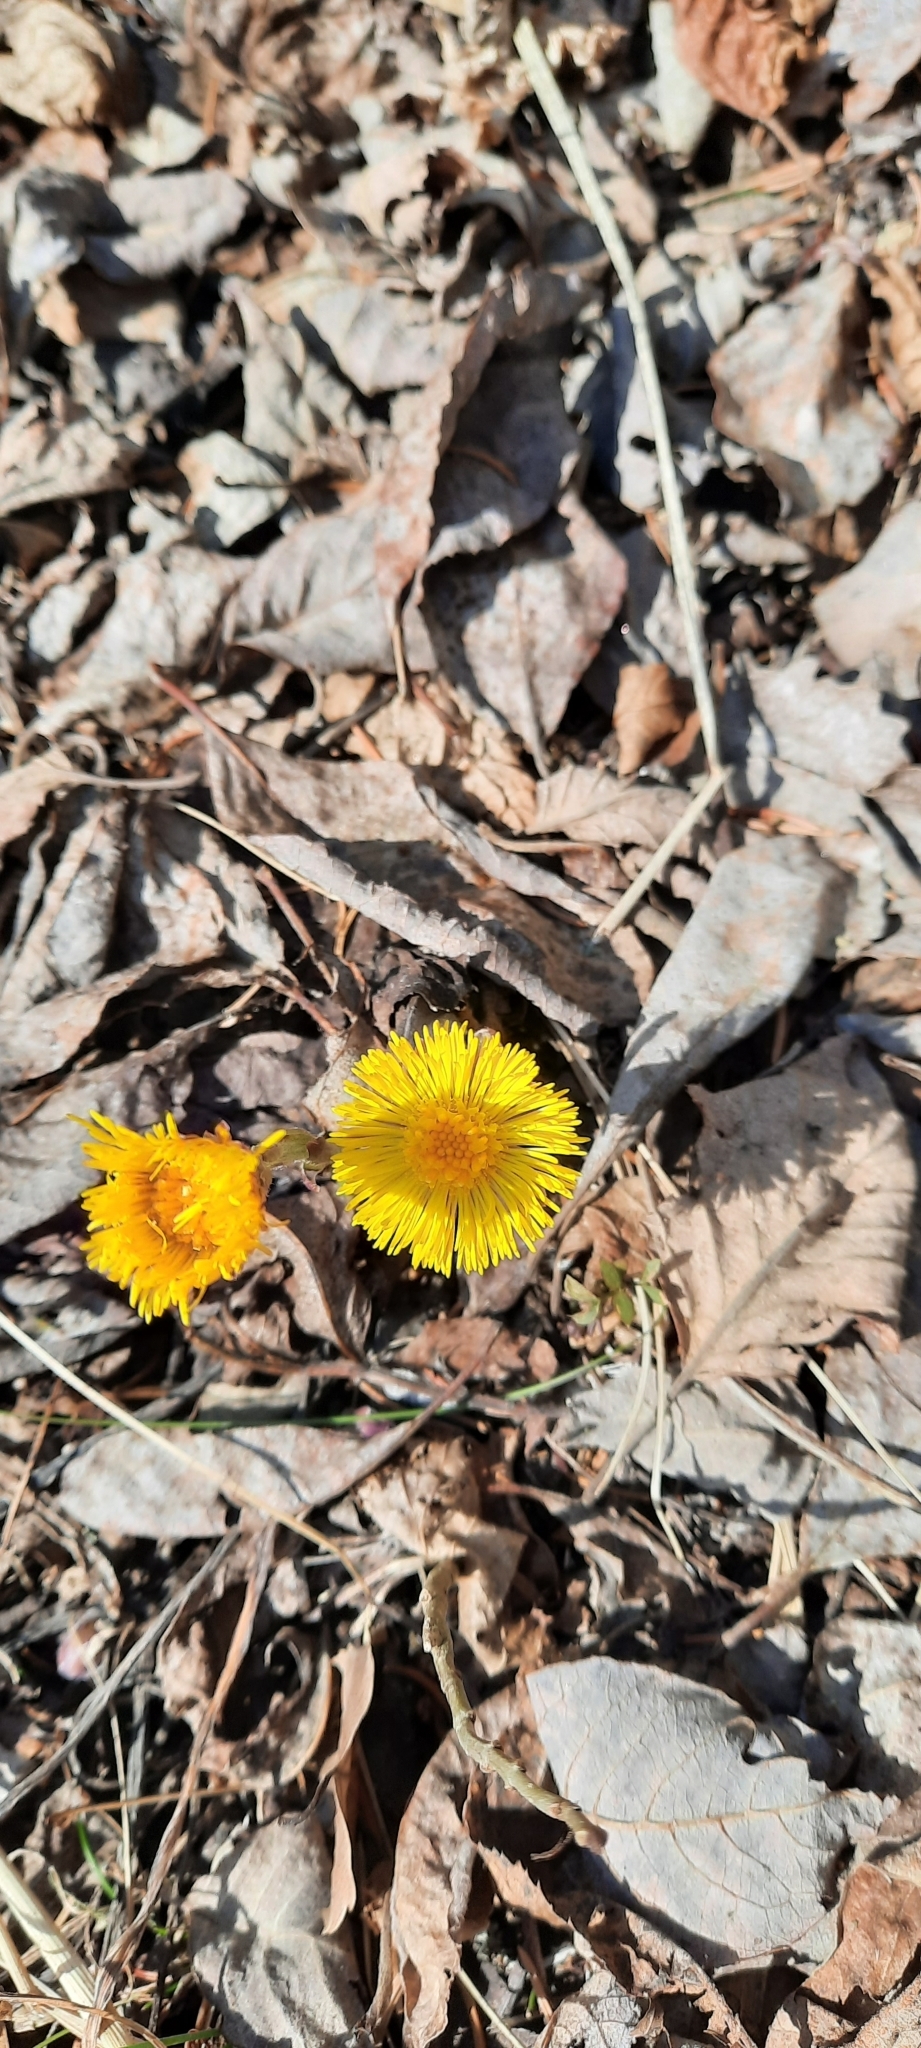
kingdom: Plantae
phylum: Tracheophyta
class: Magnoliopsida
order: Asterales
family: Asteraceae
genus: Tussilago
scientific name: Tussilago farfara
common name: Coltsfoot
